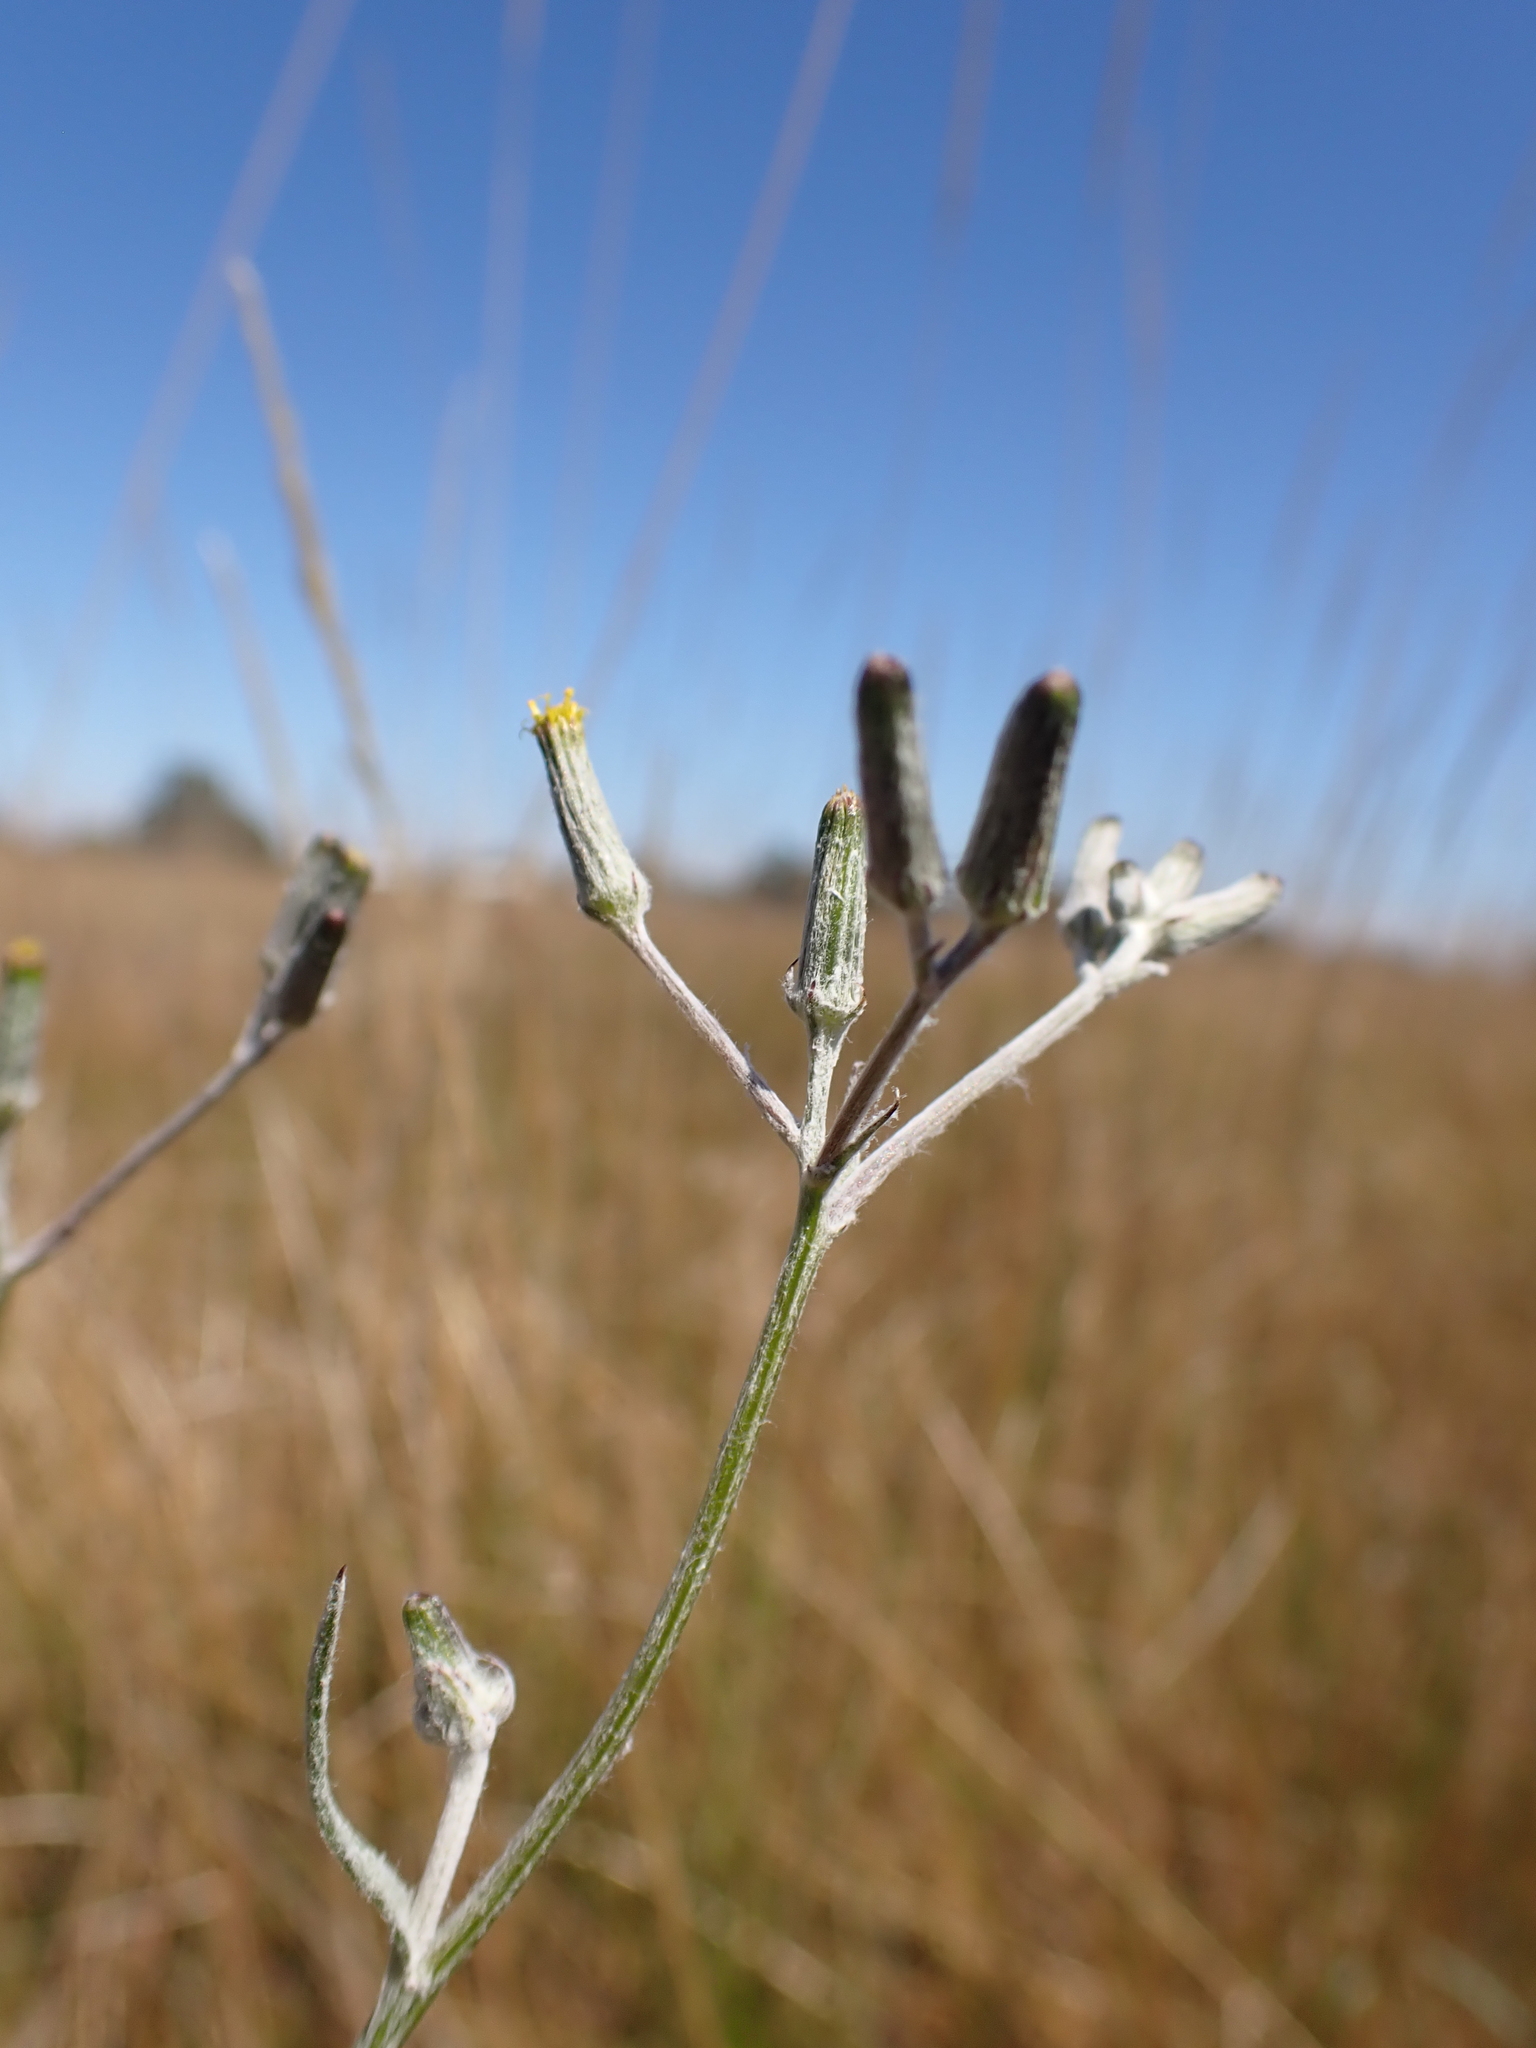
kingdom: Plantae
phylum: Tracheophyta
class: Magnoliopsida
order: Asterales
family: Asteraceae
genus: Senecio
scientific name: Senecio quadridentatus
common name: Cotton fireweed
